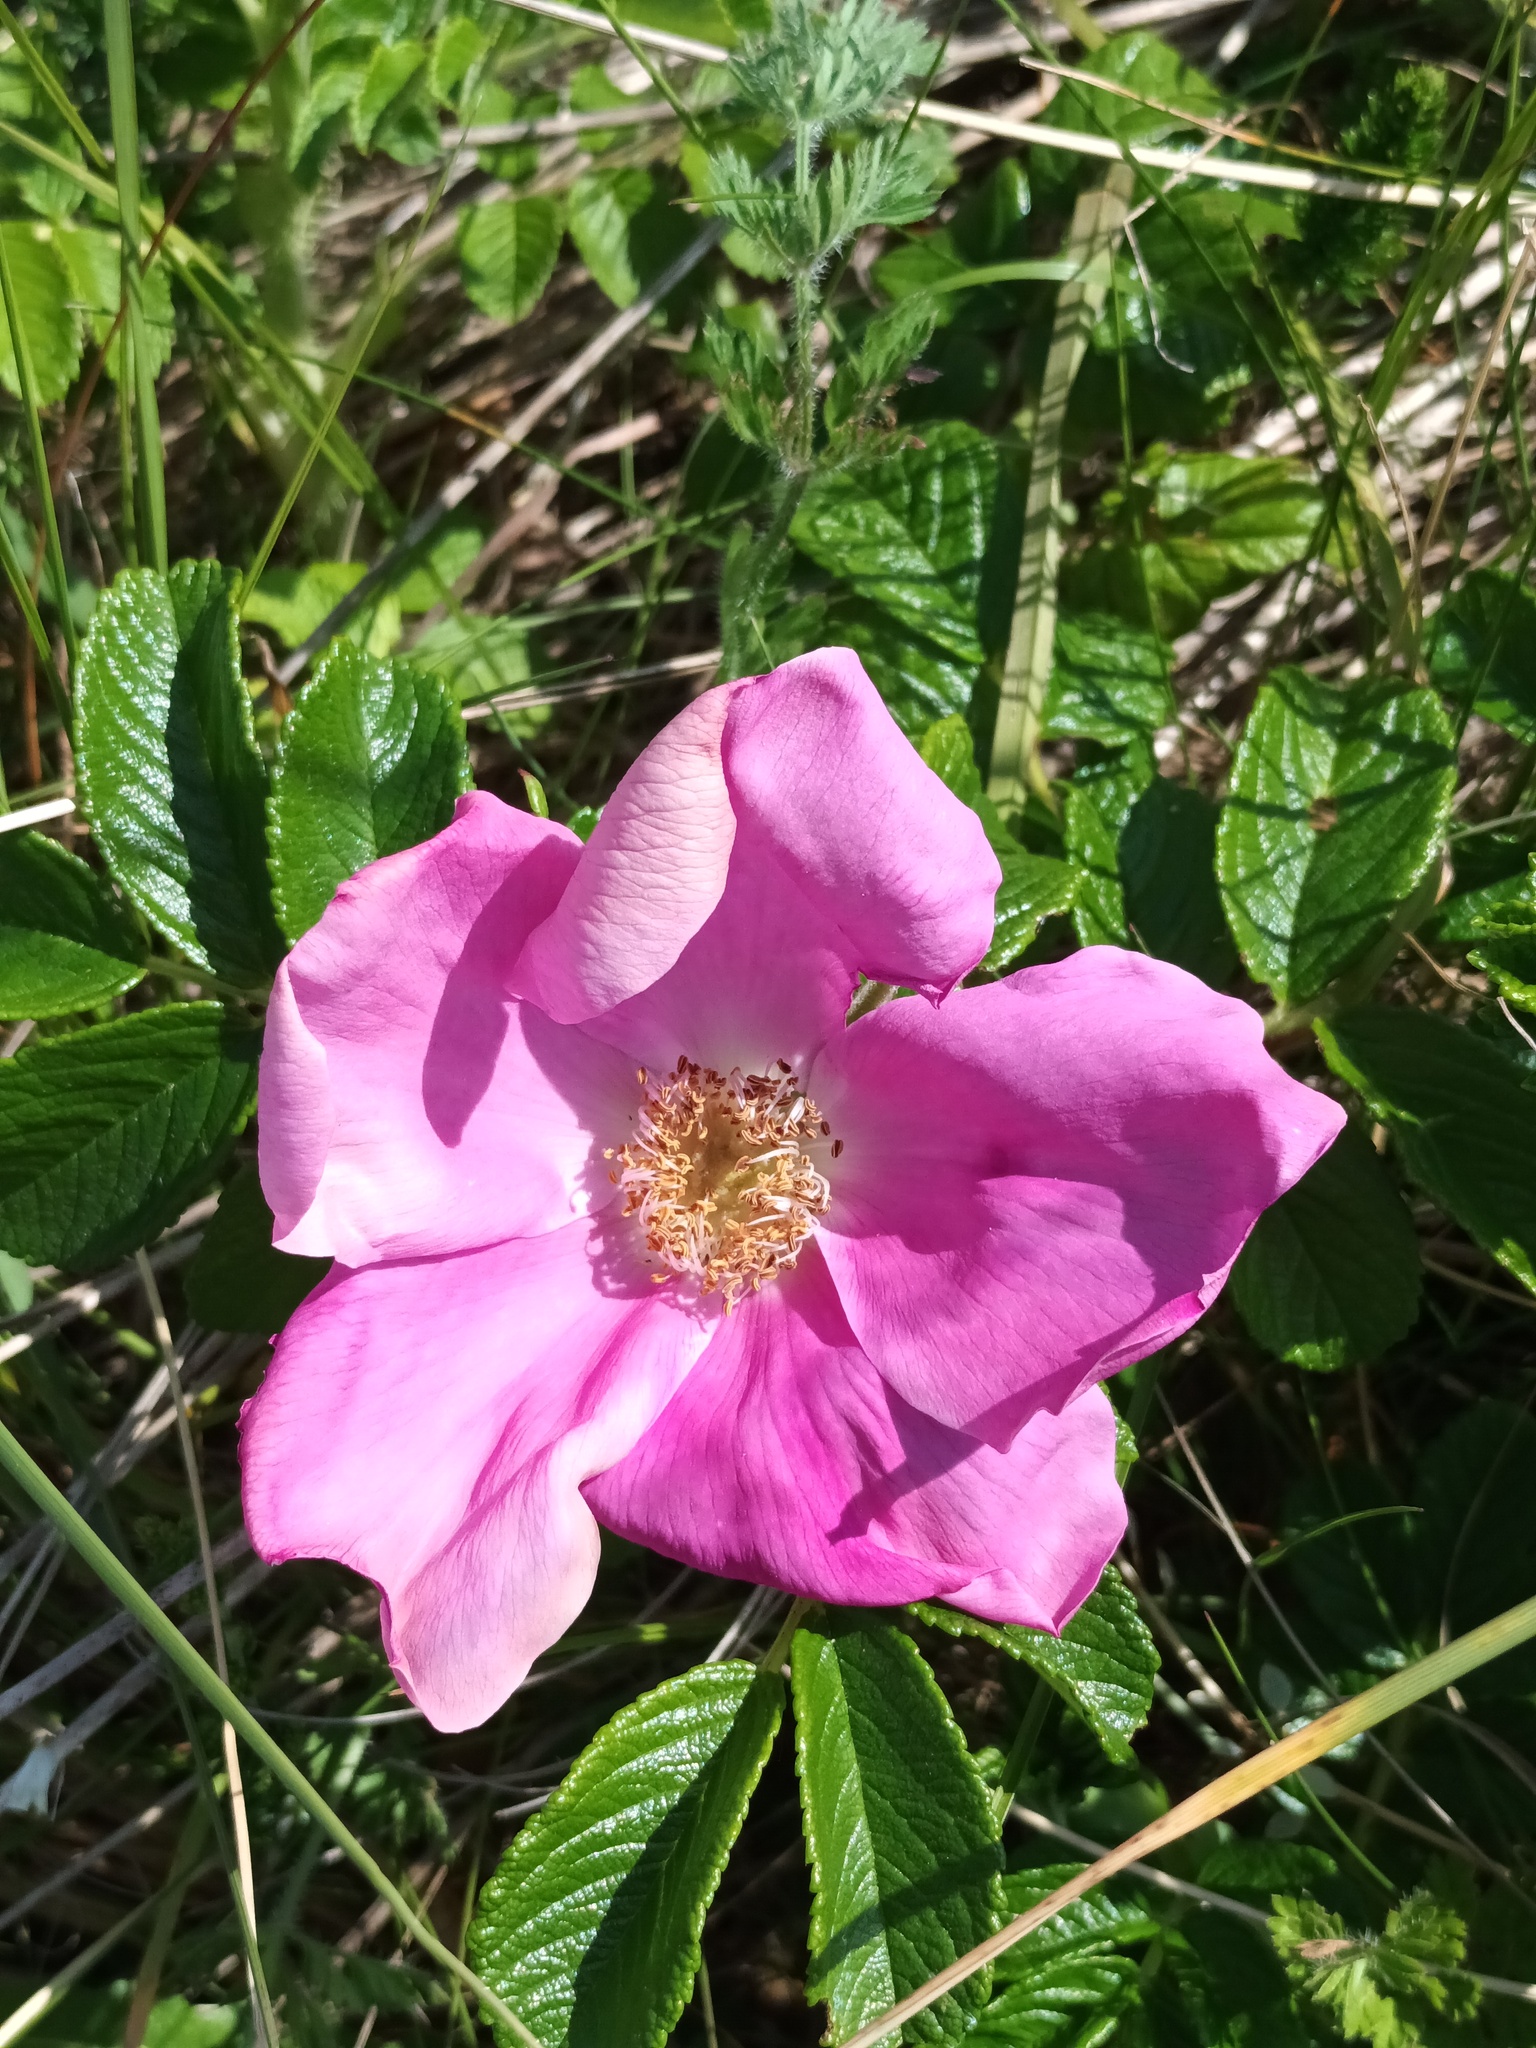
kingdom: Plantae
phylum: Tracheophyta
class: Magnoliopsida
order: Rosales
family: Rosaceae
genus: Rosa
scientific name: Rosa rugosa
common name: Japanese rose
